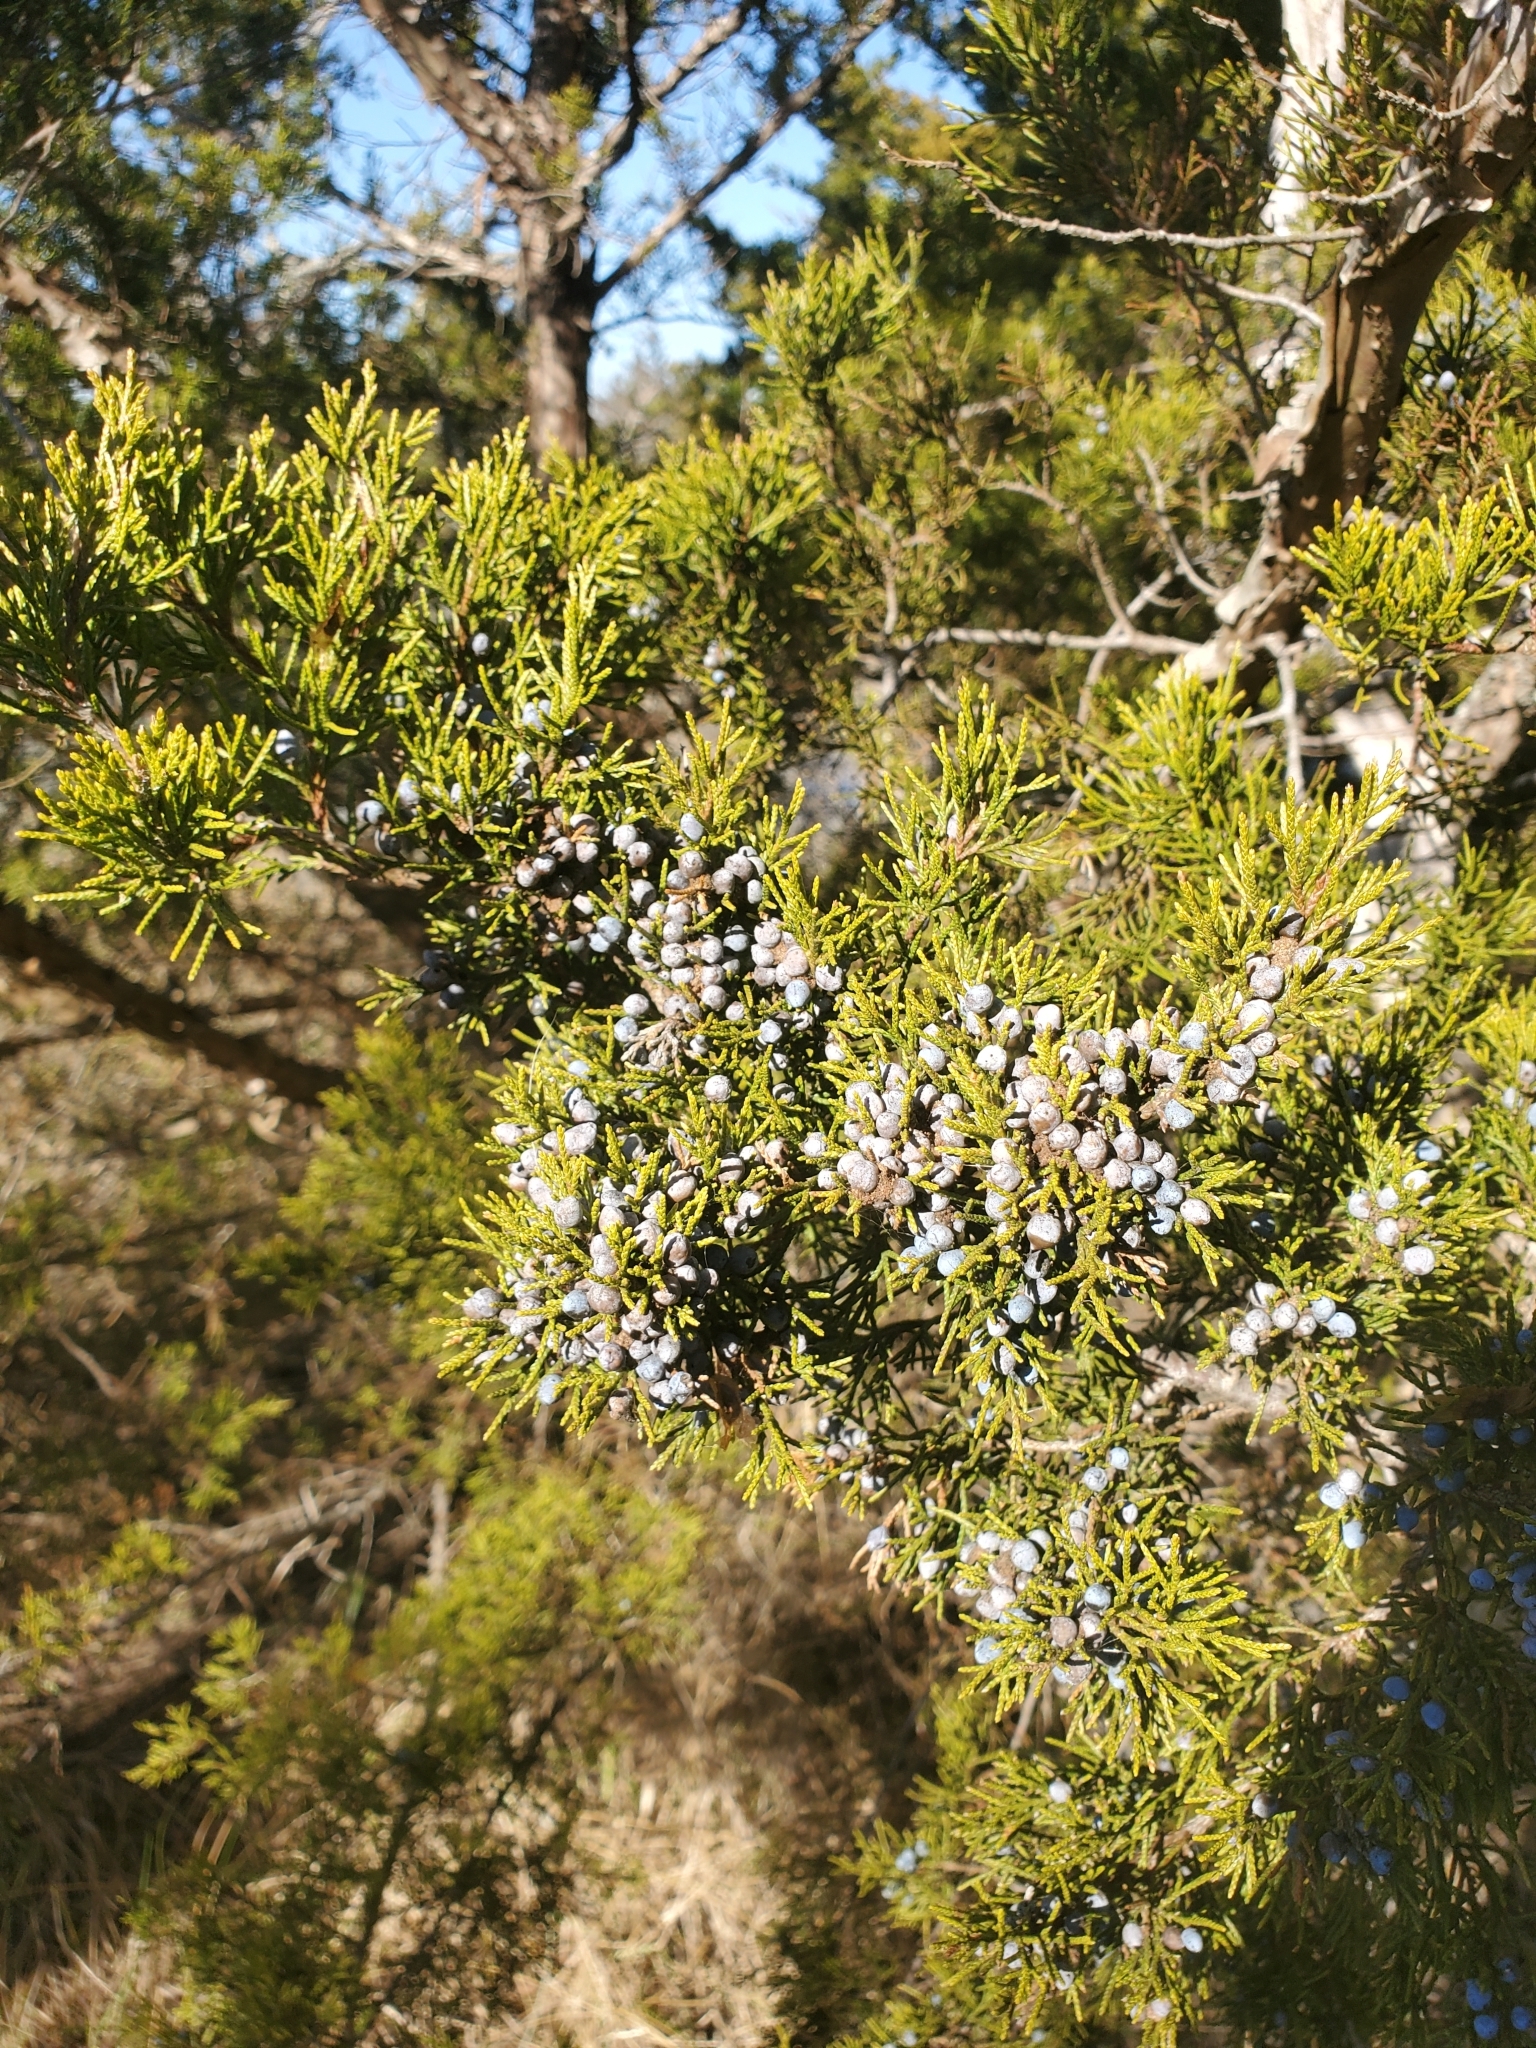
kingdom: Plantae
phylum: Tracheophyta
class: Pinopsida
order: Pinales
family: Cupressaceae
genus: Juniperus
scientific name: Juniperus virginiana
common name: Red juniper
